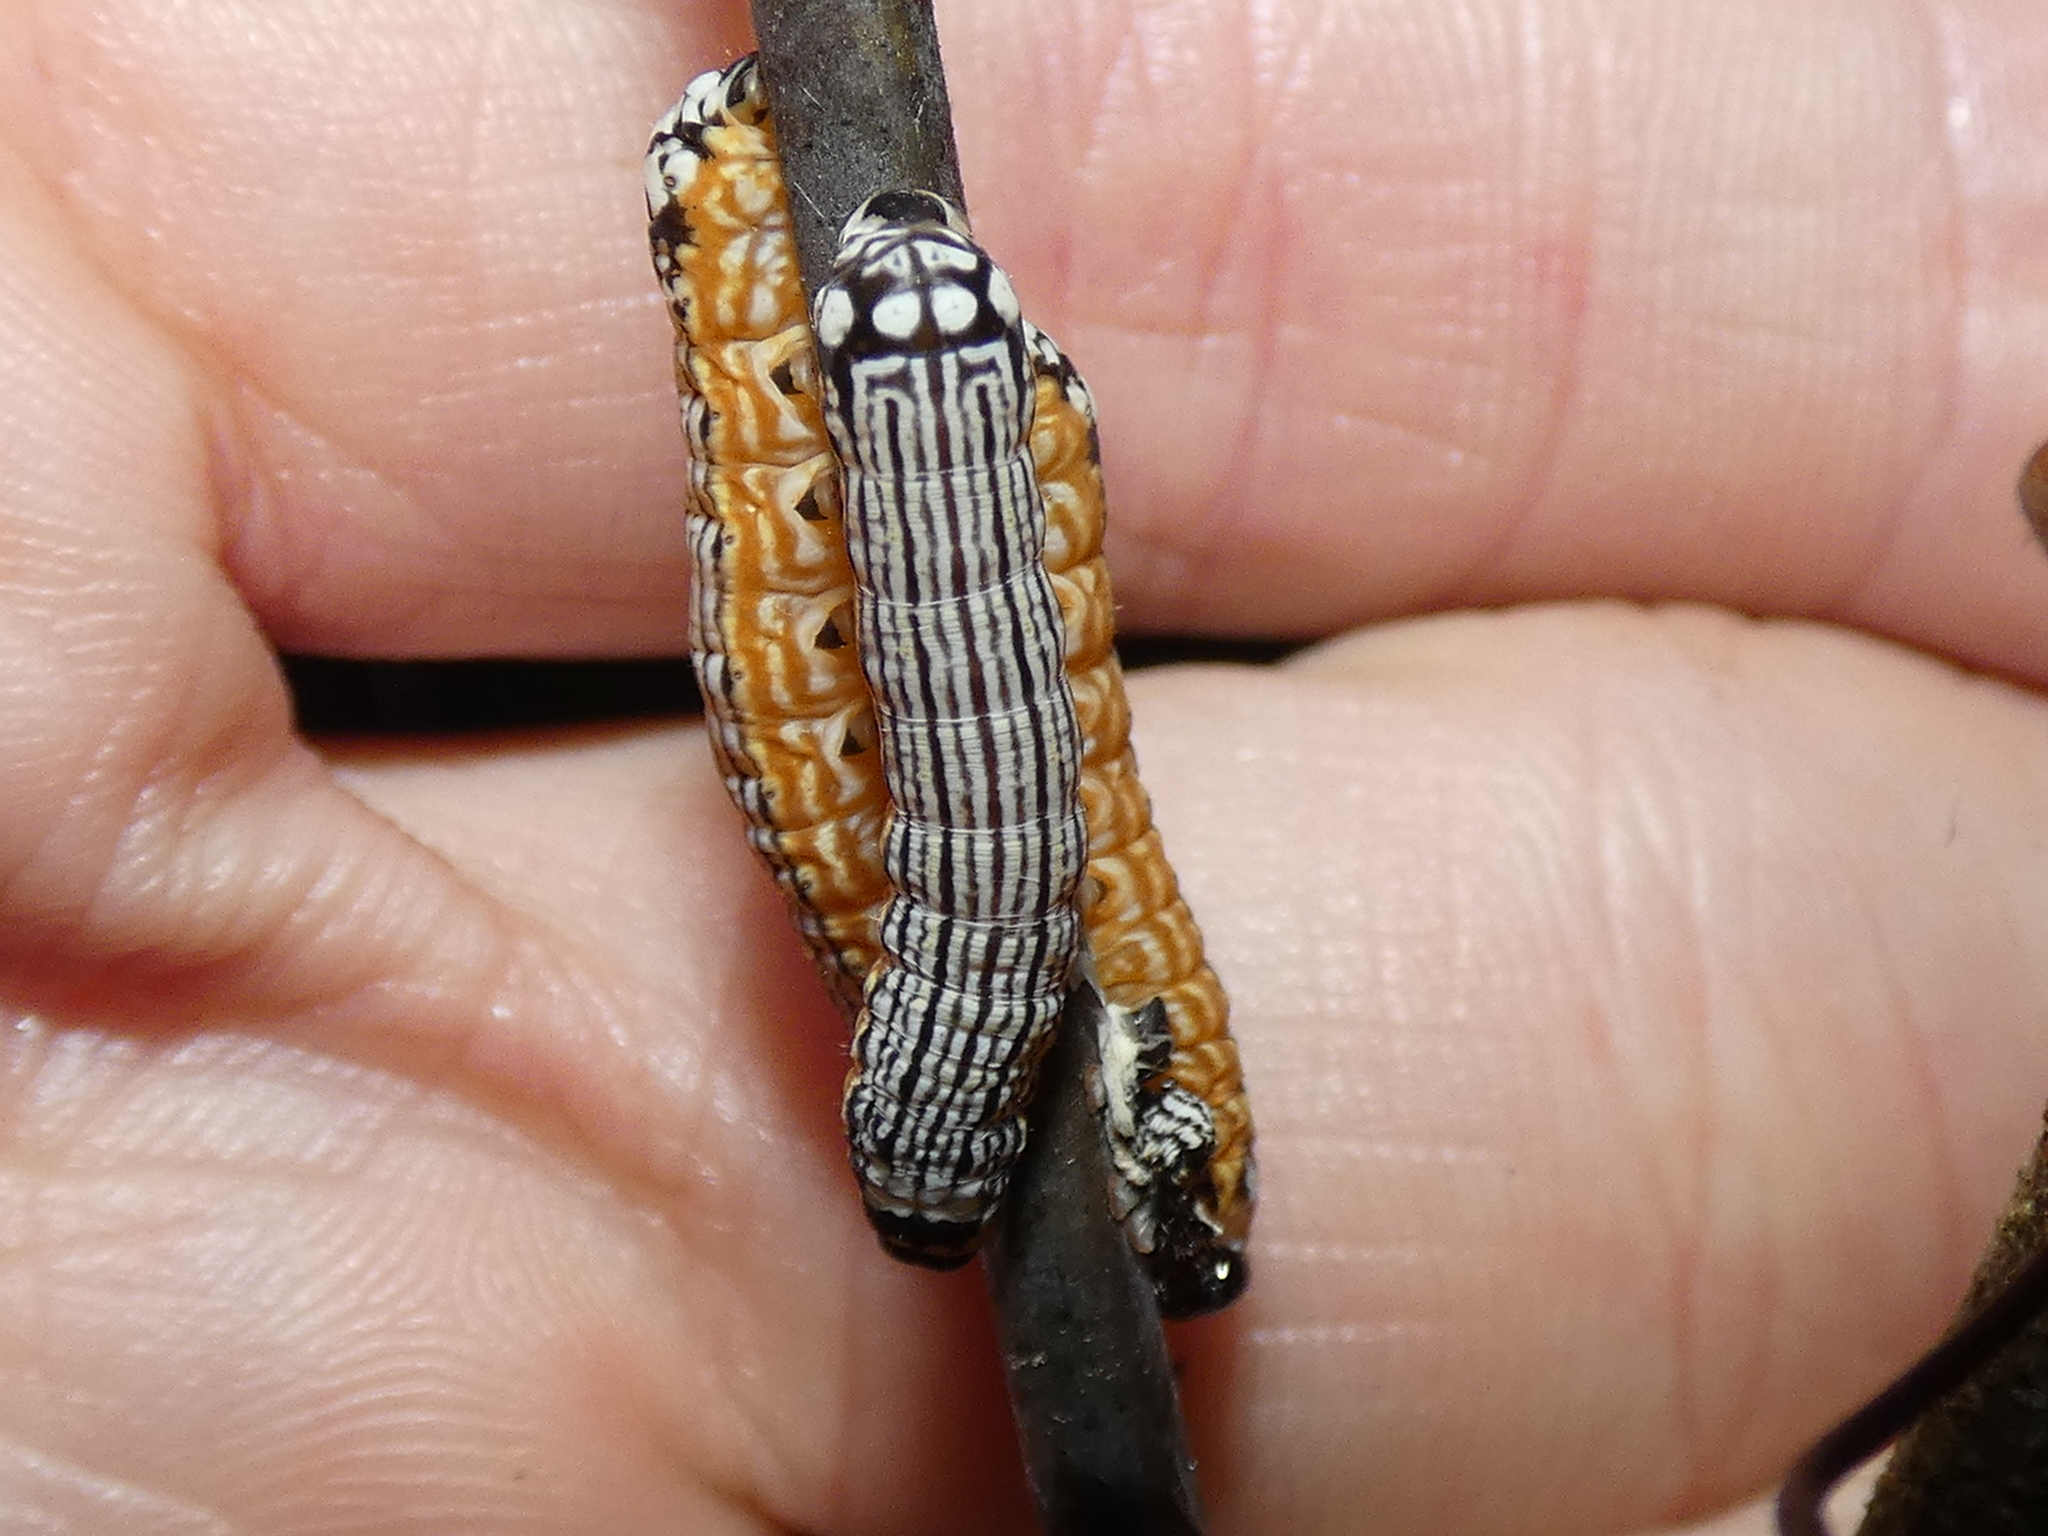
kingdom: Animalia
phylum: Arthropoda
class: Insecta
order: Lepidoptera
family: Noctuidae
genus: Phosphila
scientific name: Phosphila turbulenta
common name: Turbulent phosphila moth
